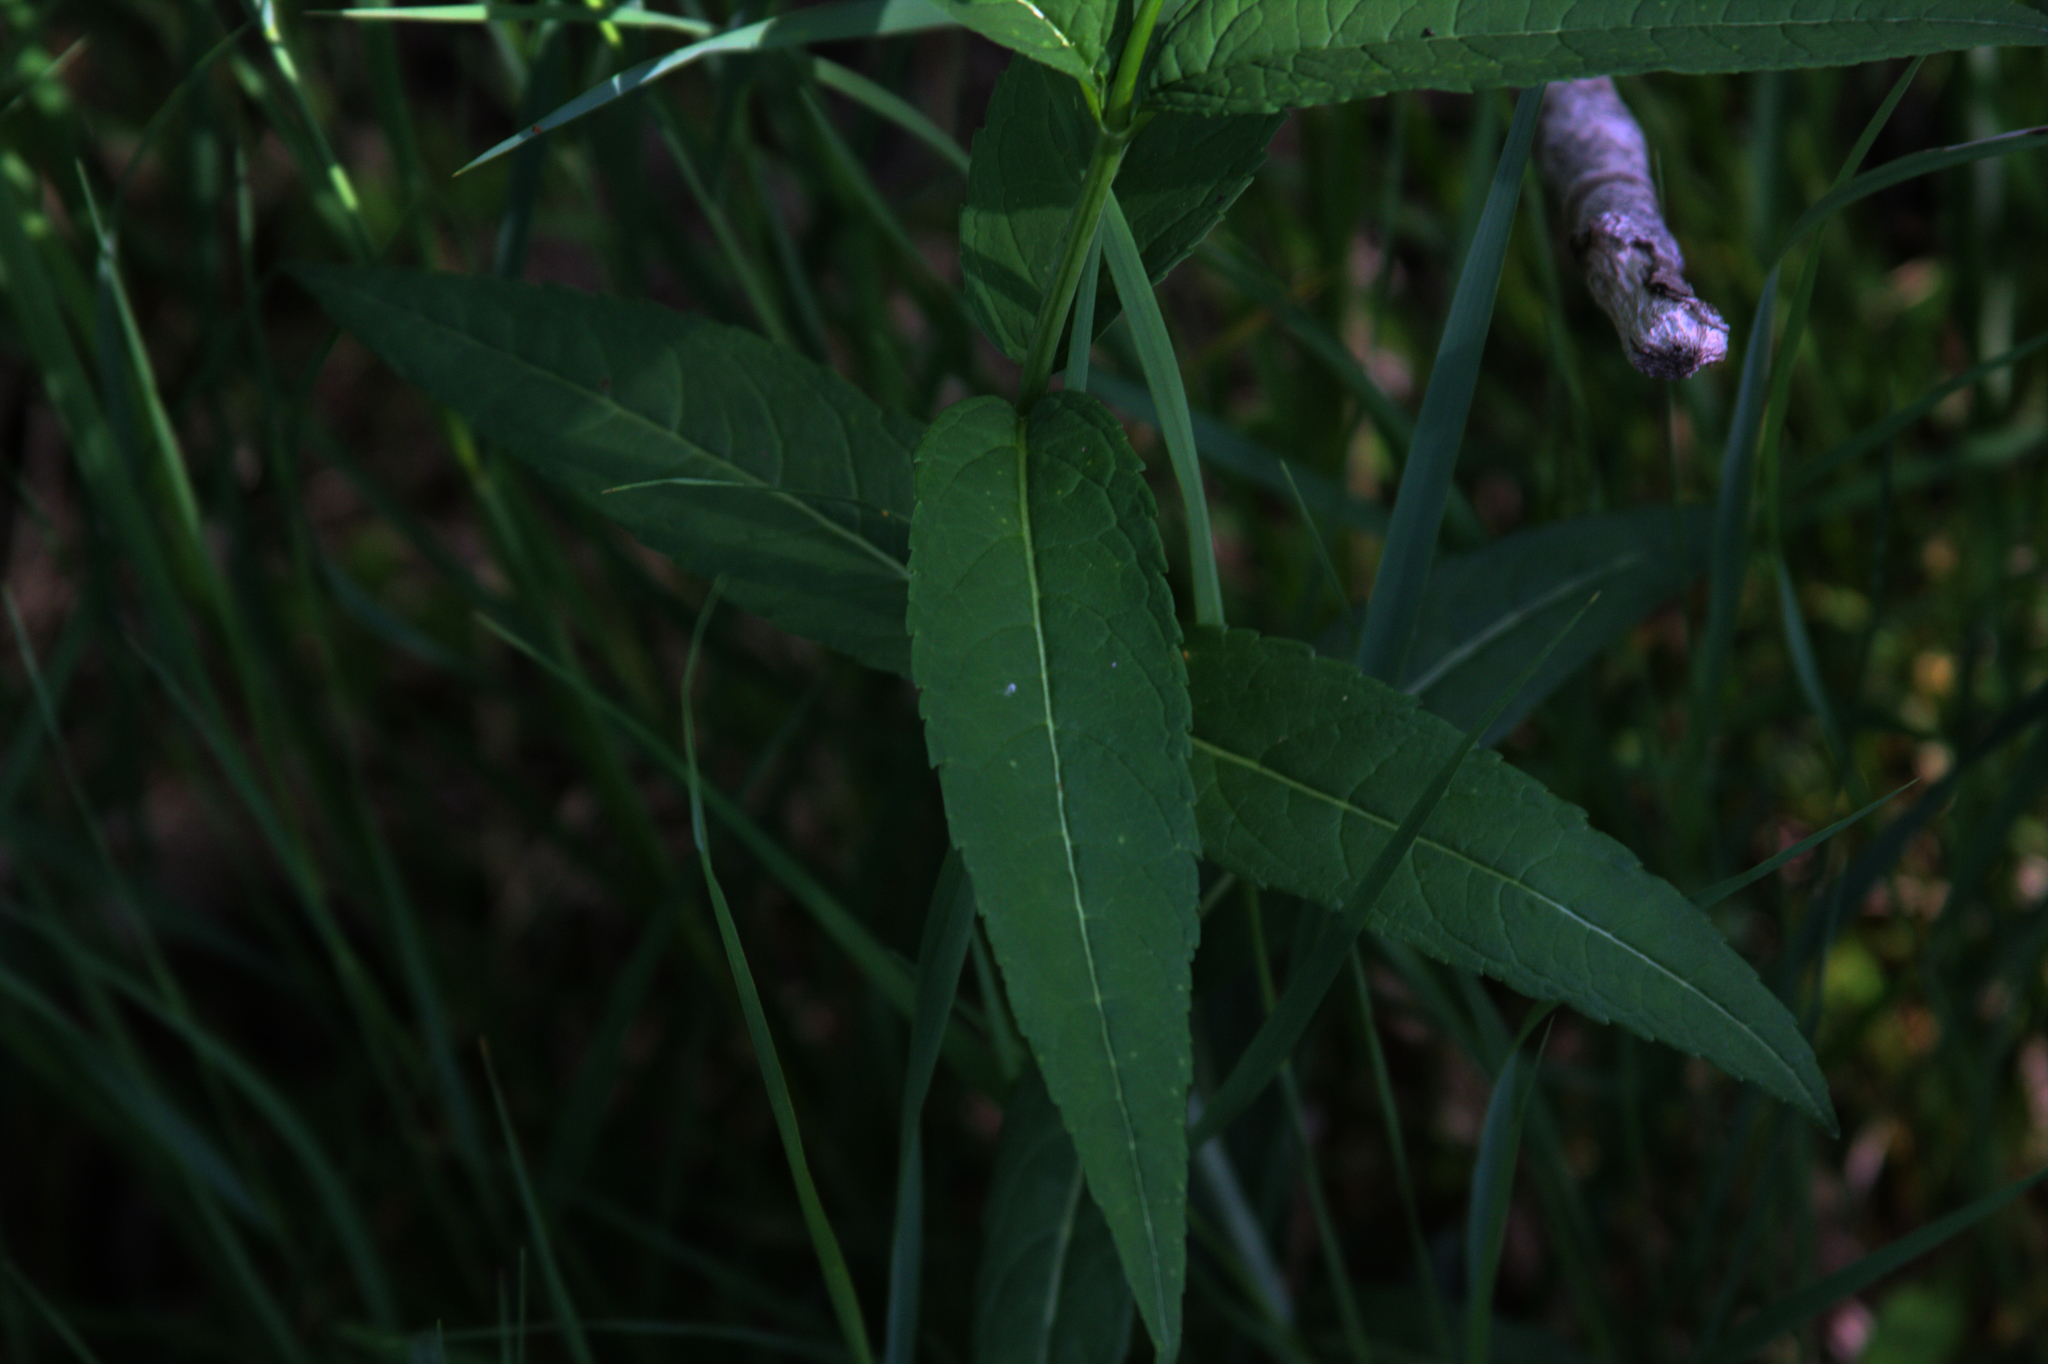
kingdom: Plantae
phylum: Tracheophyta
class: Magnoliopsida
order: Lamiales
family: Plantaginaceae
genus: Chelone
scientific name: Chelone glabra
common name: Snakehead
